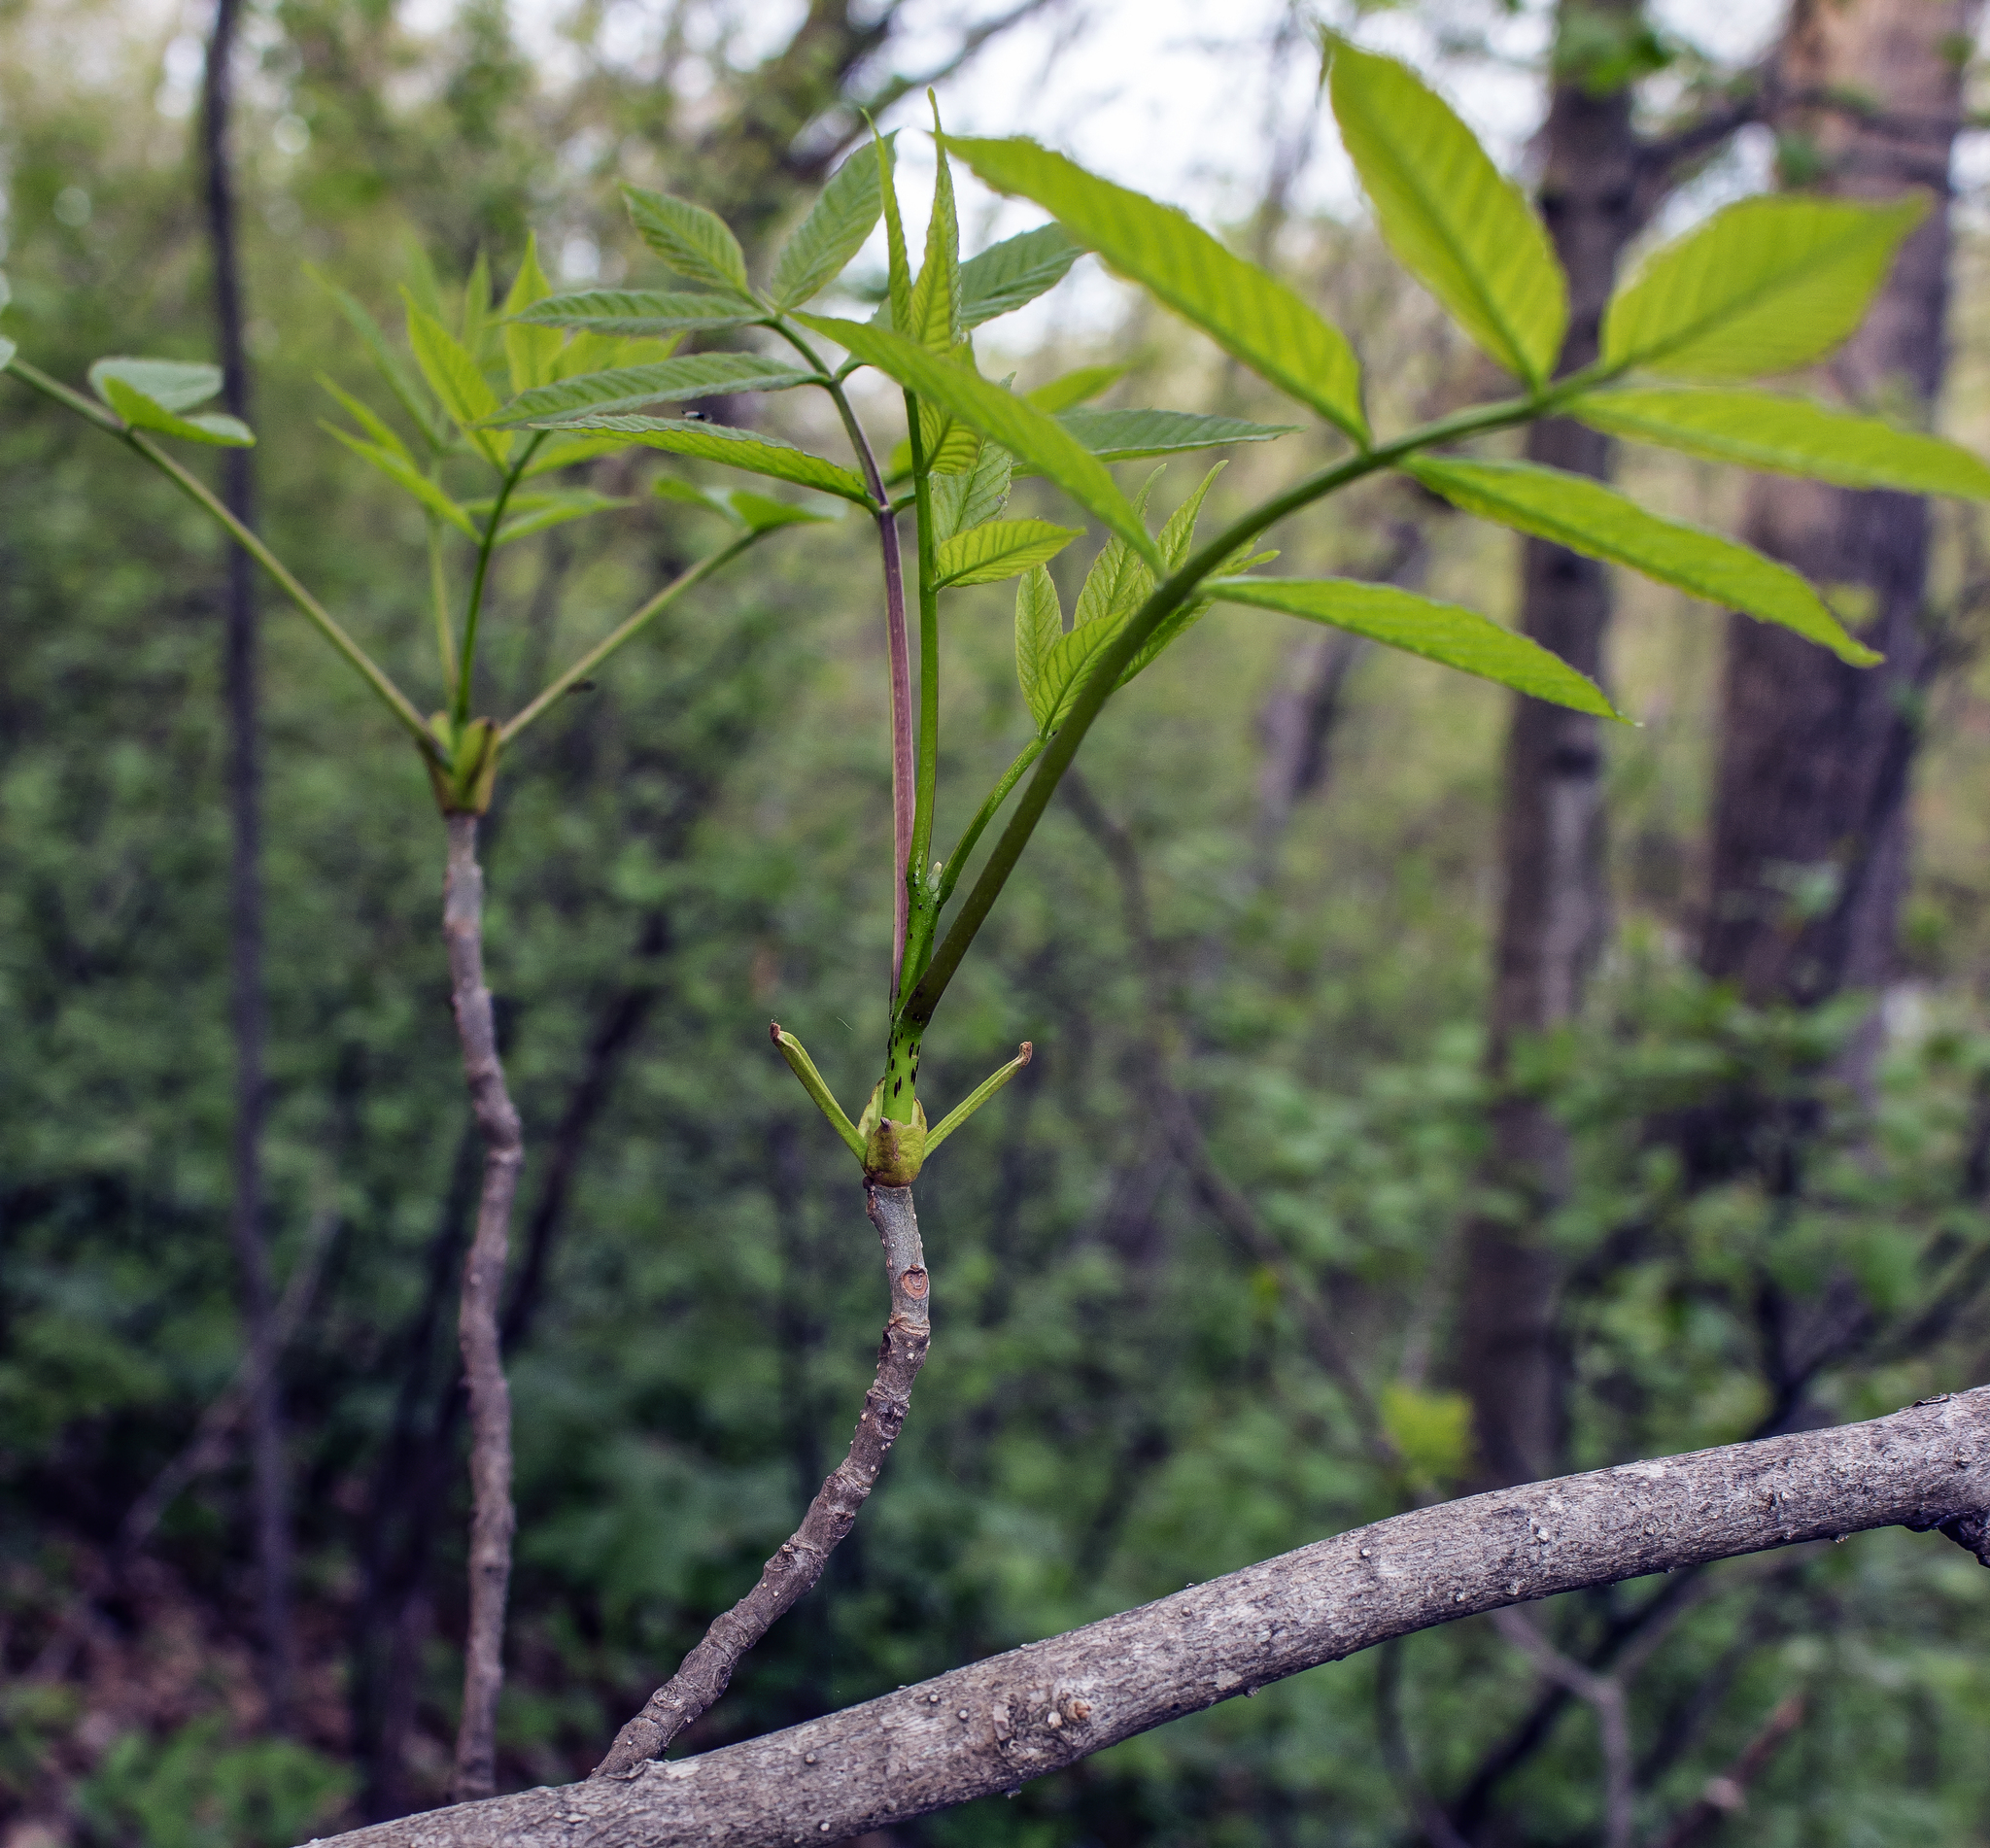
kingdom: Plantae
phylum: Tracheophyta
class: Magnoliopsida
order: Lamiales
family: Oleaceae
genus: Fraxinus
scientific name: Fraxinus pennsylvanica
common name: Green ash
